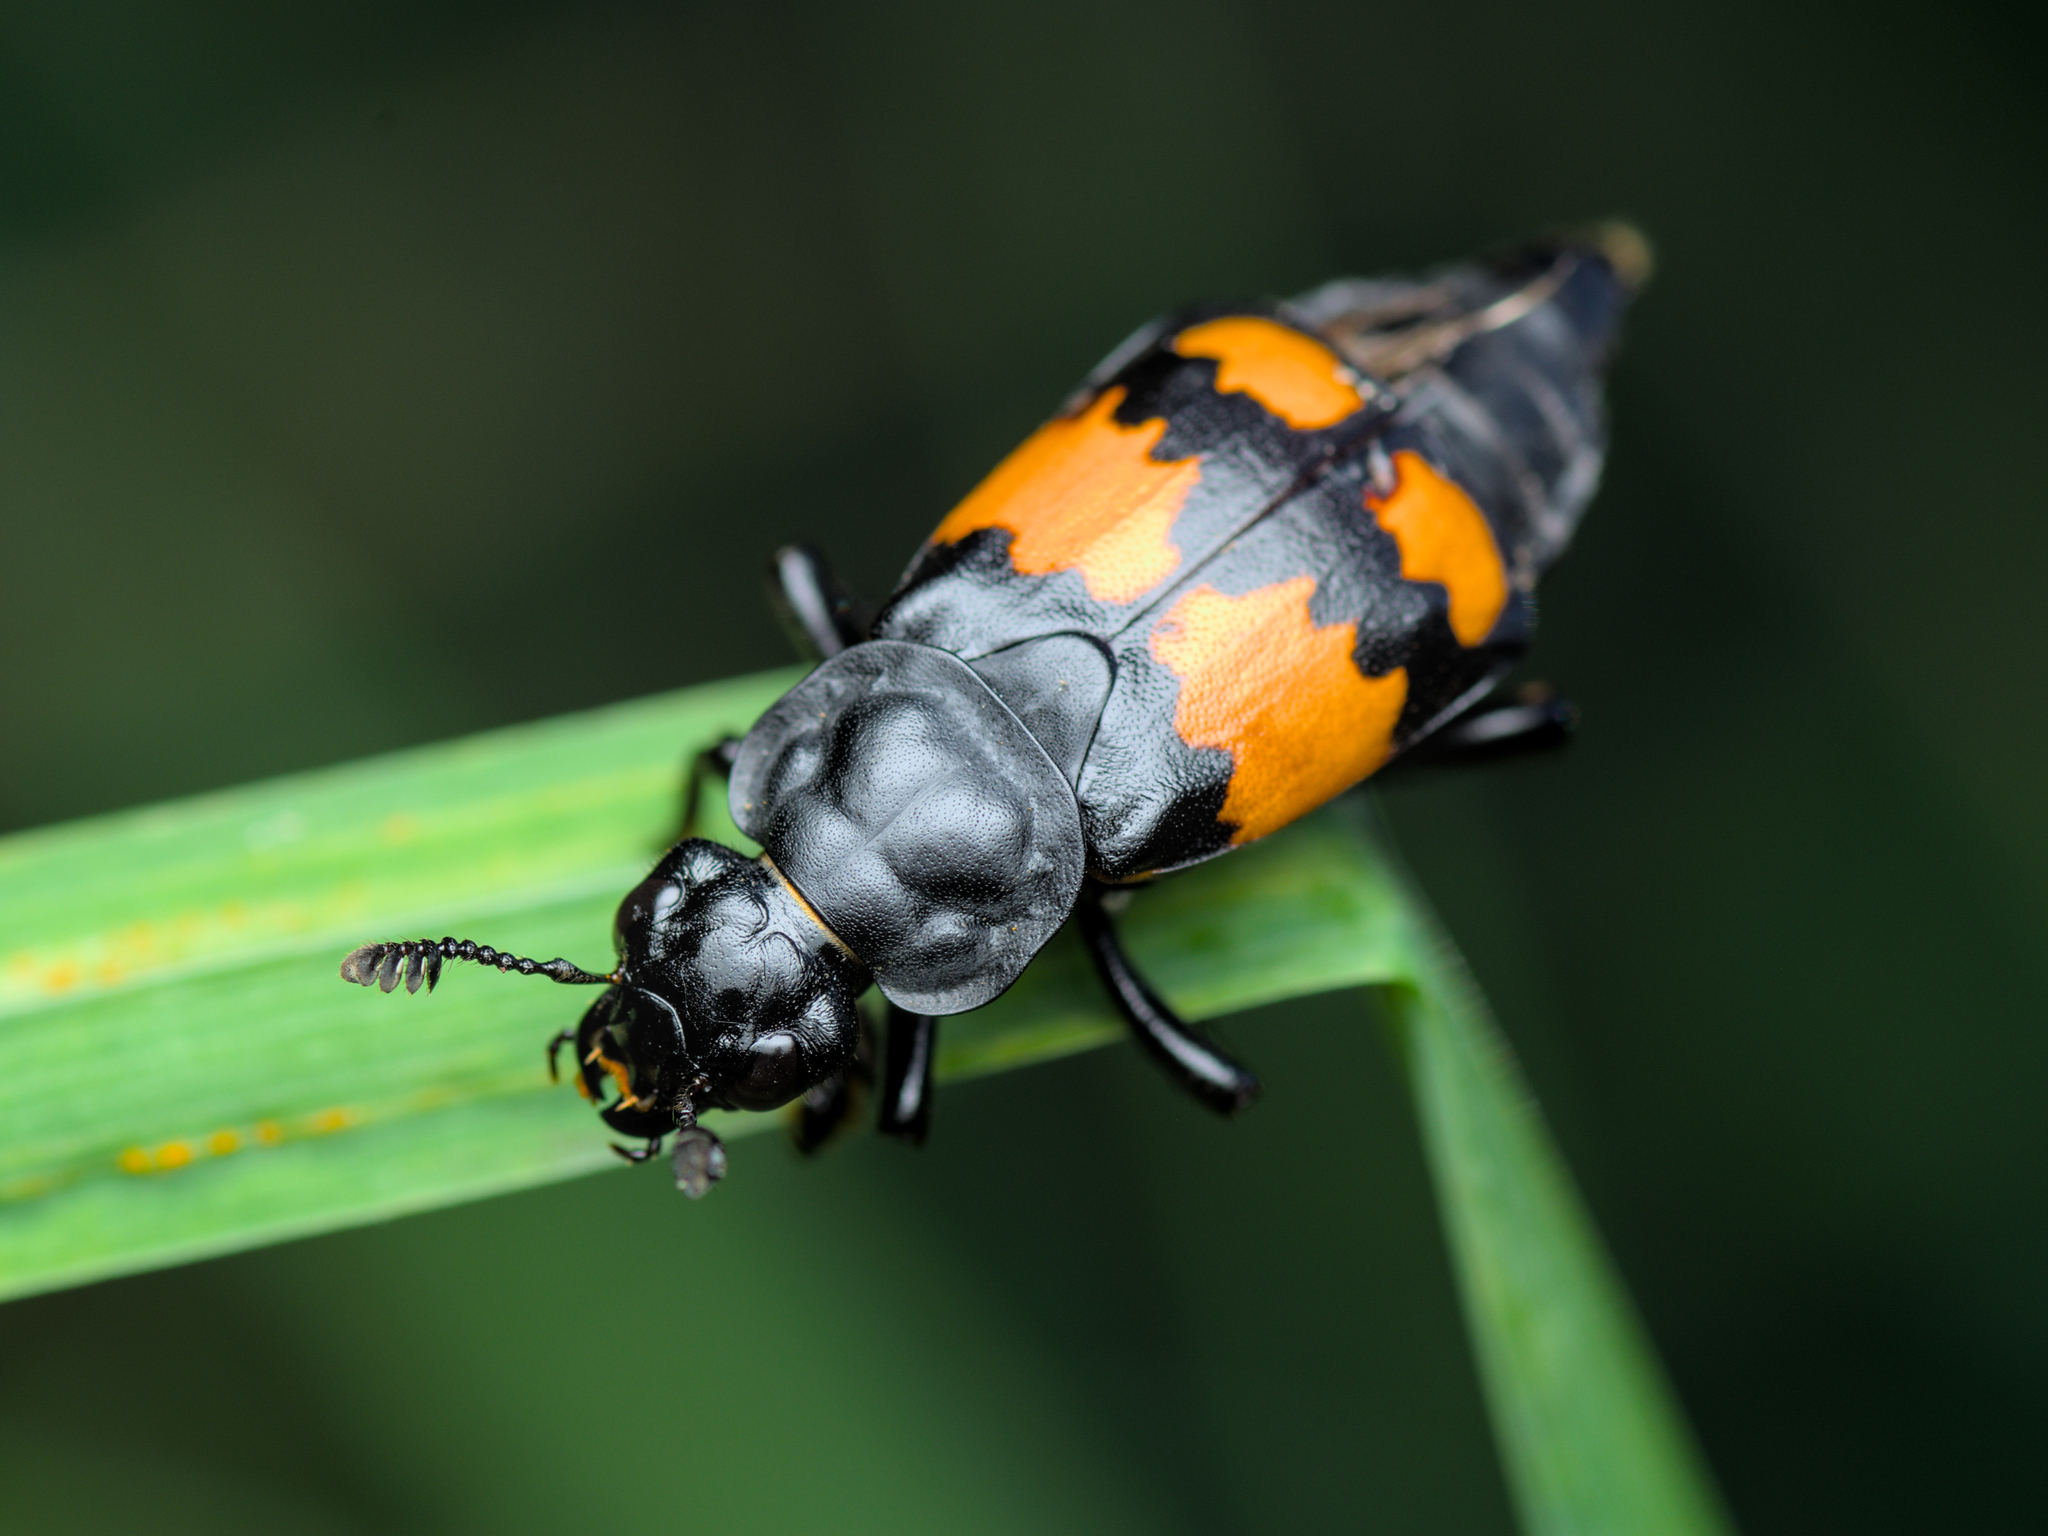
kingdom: Animalia
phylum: Arthropoda
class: Insecta
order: Coleoptera
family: Staphylinidae
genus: Nicrophorus
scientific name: Nicrophorus vespilloides
